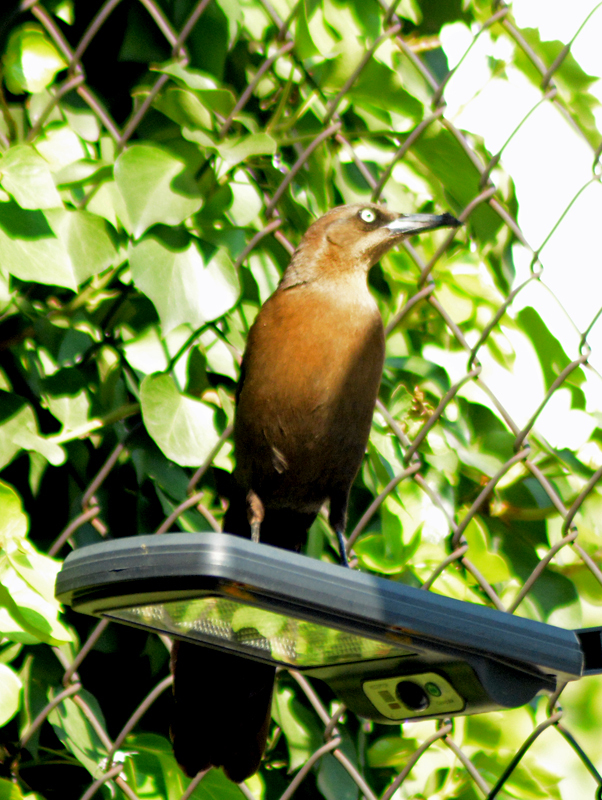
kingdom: Animalia
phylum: Chordata
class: Aves
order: Passeriformes
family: Icteridae
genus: Quiscalus
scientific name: Quiscalus mexicanus
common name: Great-tailed grackle
